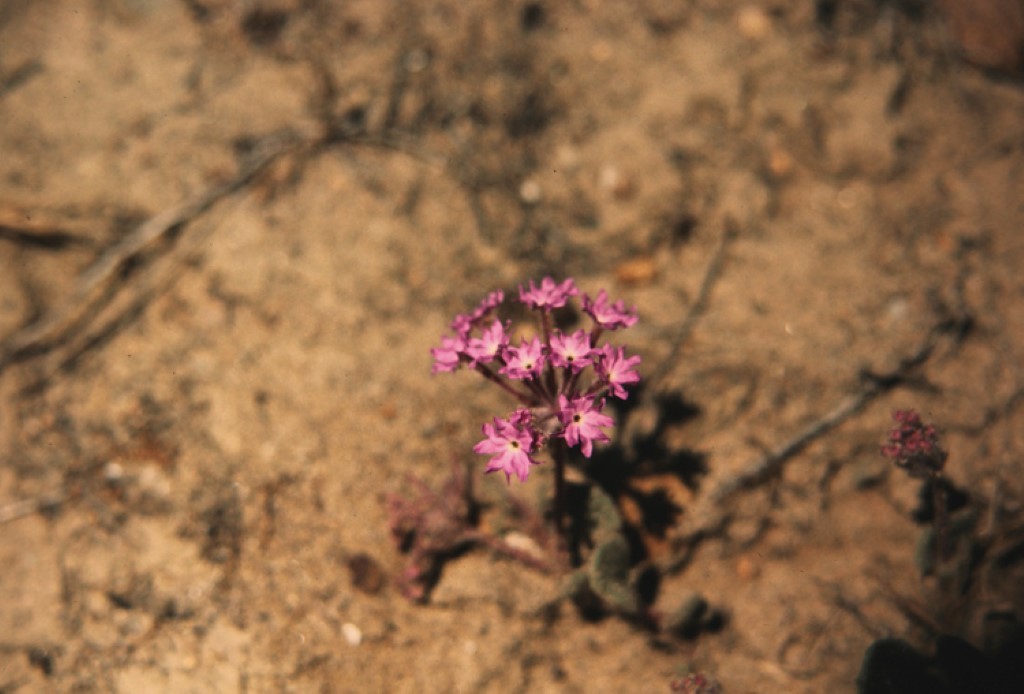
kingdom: Plantae
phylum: Tracheophyta
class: Magnoliopsida
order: Caryophyllales
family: Nyctaginaceae
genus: Abronia
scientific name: Abronia villosa
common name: Desert sand-verbena
